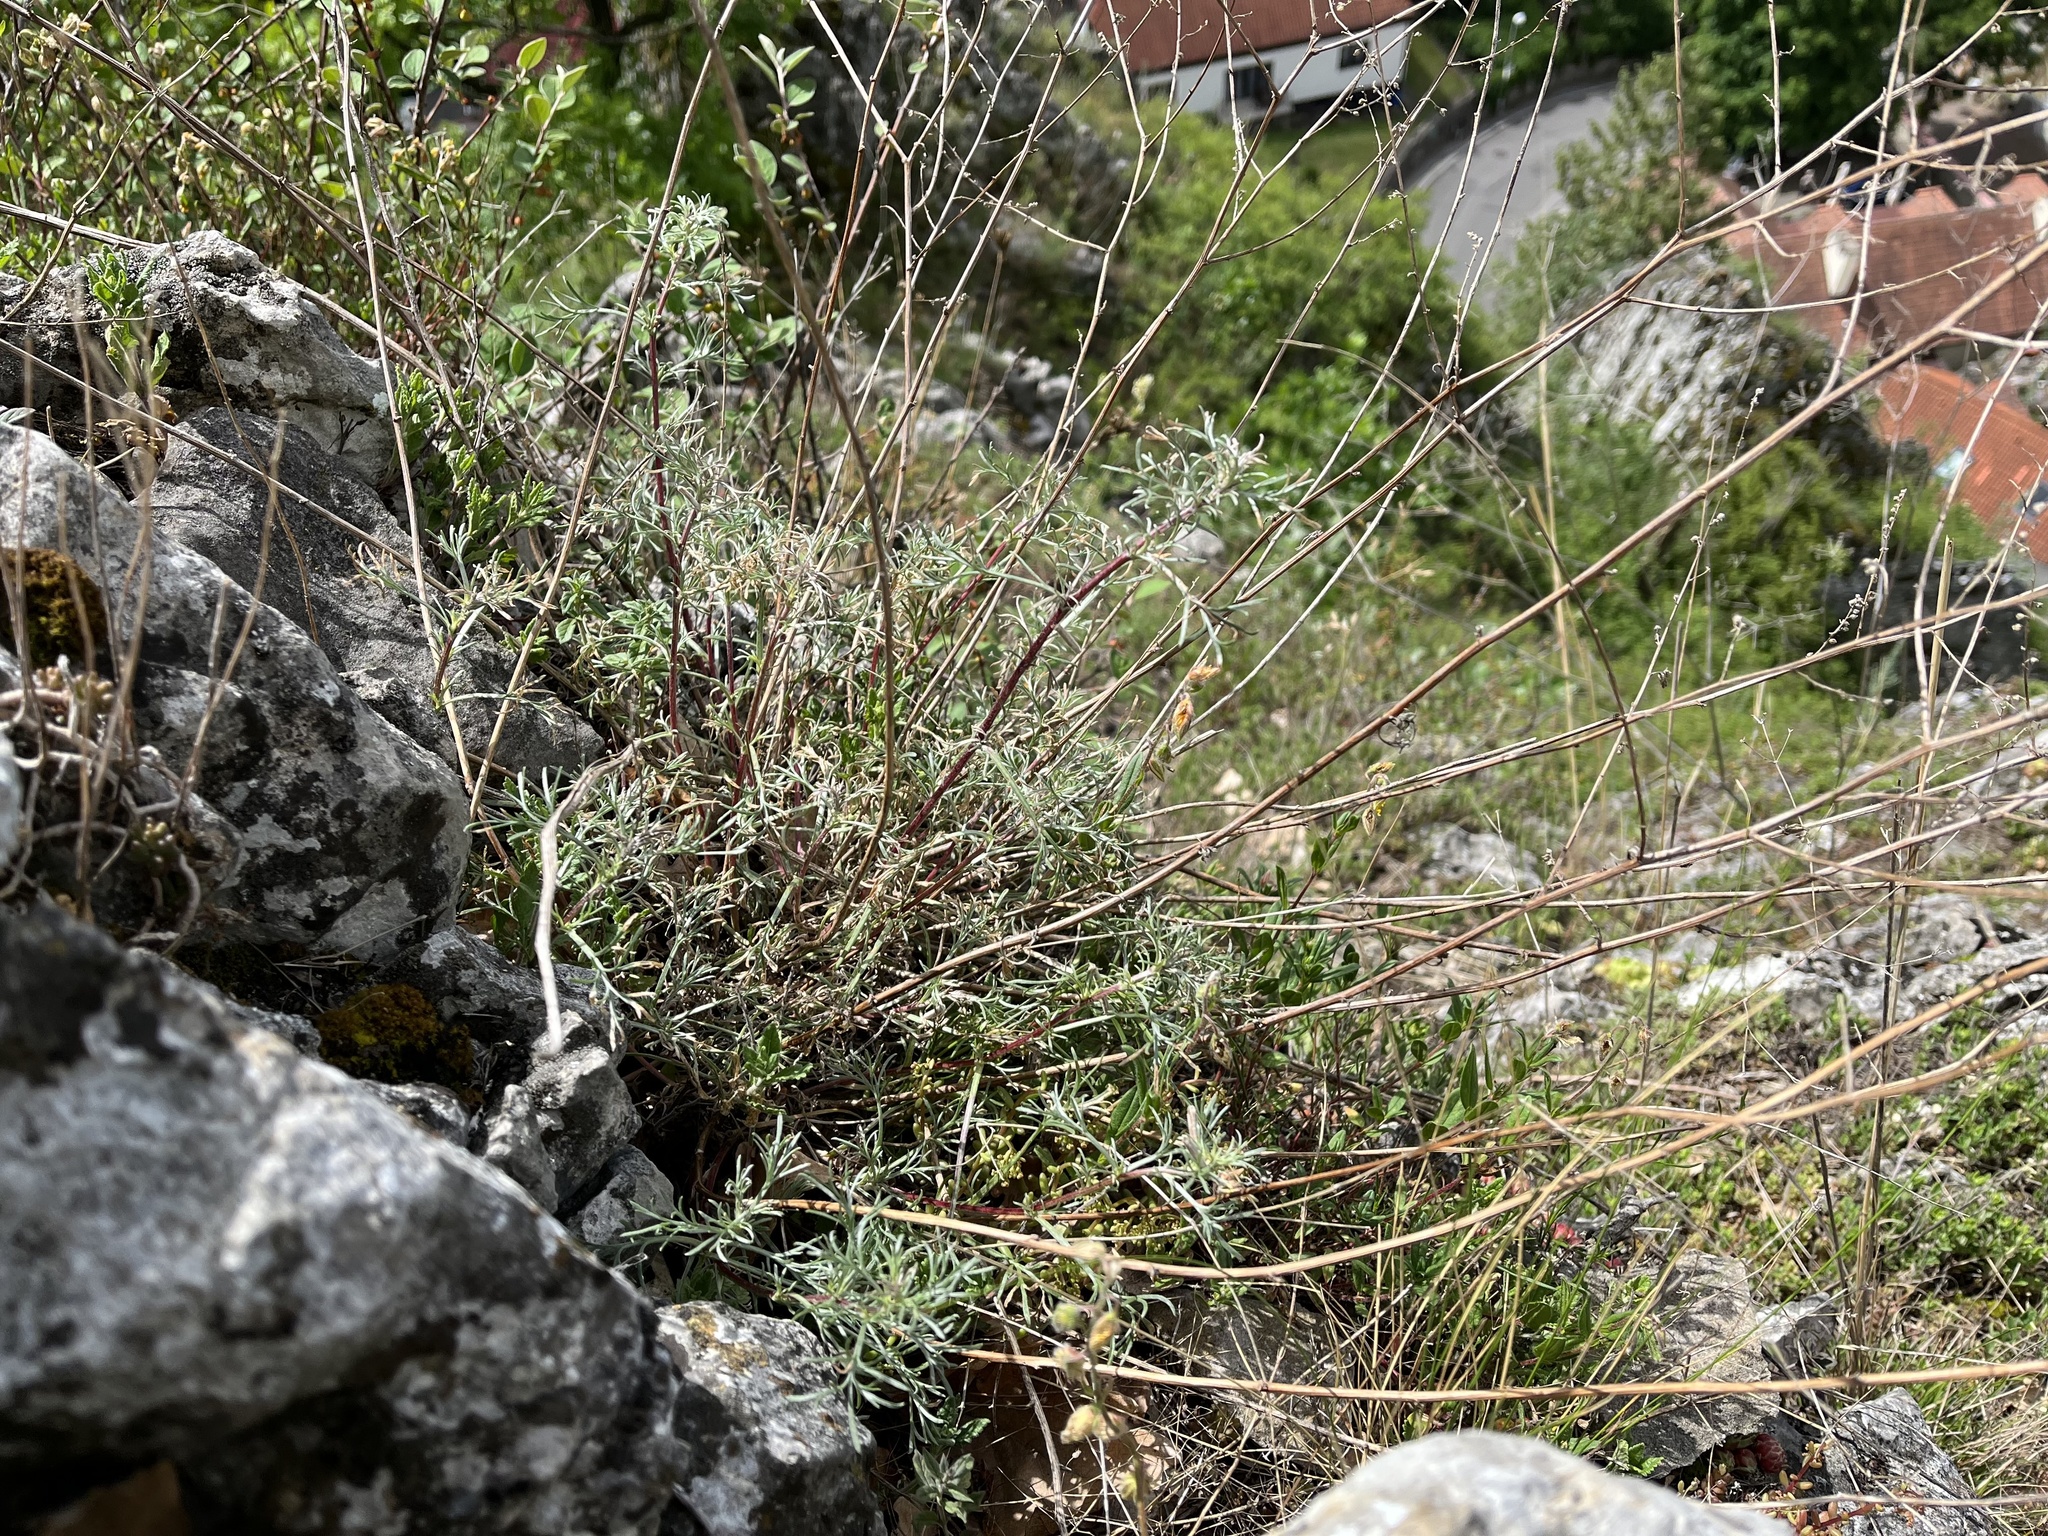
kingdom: Plantae
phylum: Tracheophyta
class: Magnoliopsida
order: Asterales
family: Asteraceae
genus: Artemisia
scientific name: Artemisia campestris
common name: Field wormwood
